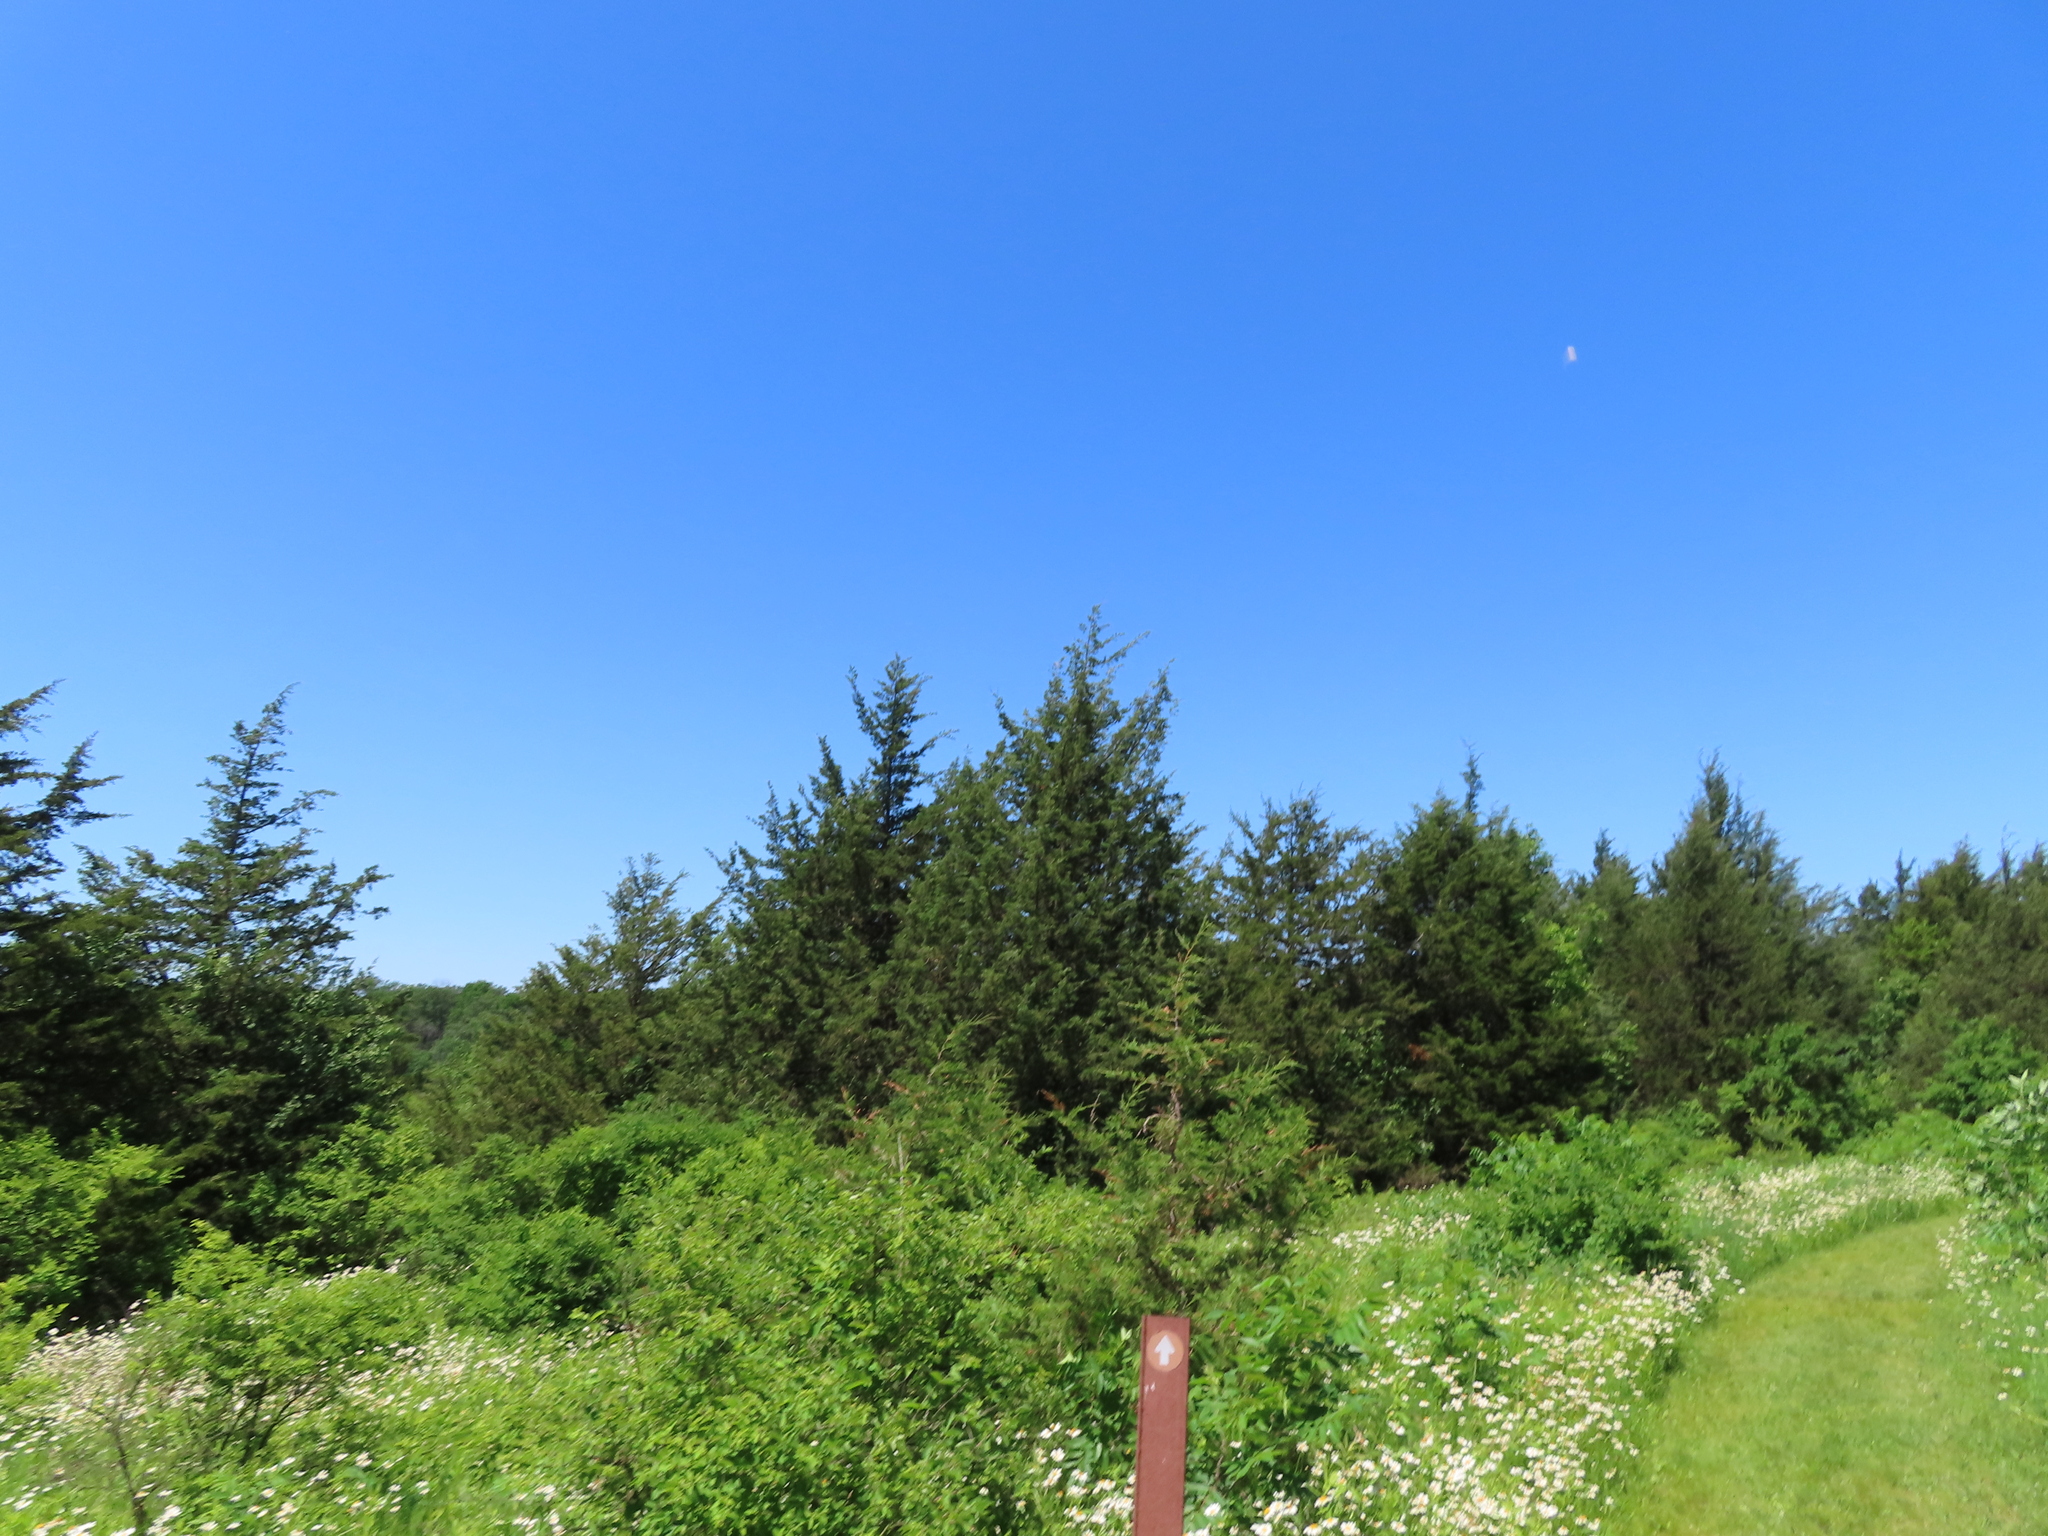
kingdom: Plantae
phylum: Tracheophyta
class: Pinopsida
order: Pinales
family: Cupressaceae
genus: Juniperus
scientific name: Juniperus virginiana
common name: Red juniper
